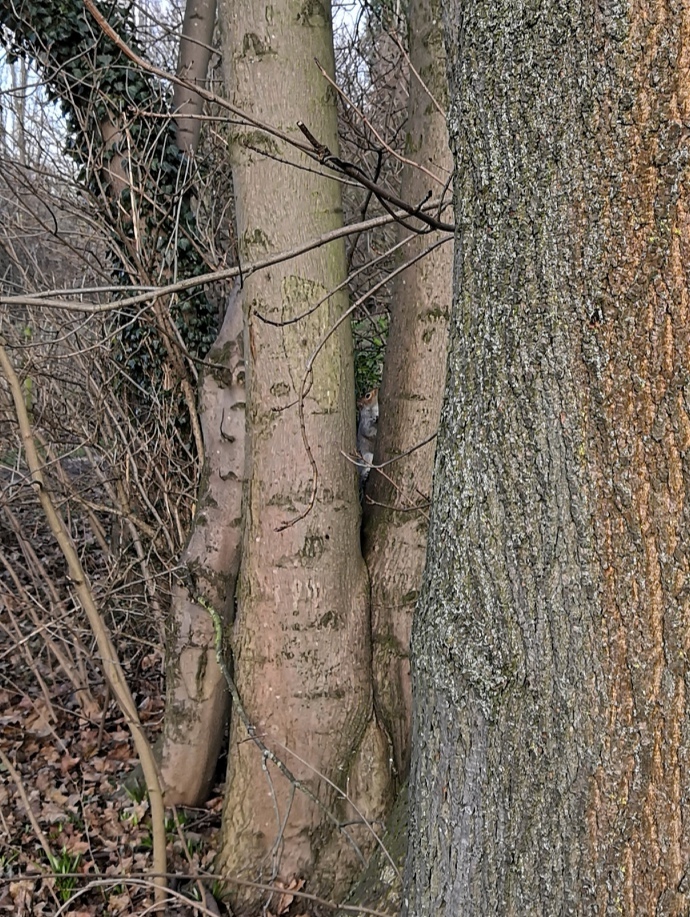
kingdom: Animalia
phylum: Chordata
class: Mammalia
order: Rodentia
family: Sciuridae
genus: Sciurus
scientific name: Sciurus carolinensis
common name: Eastern gray squirrel
